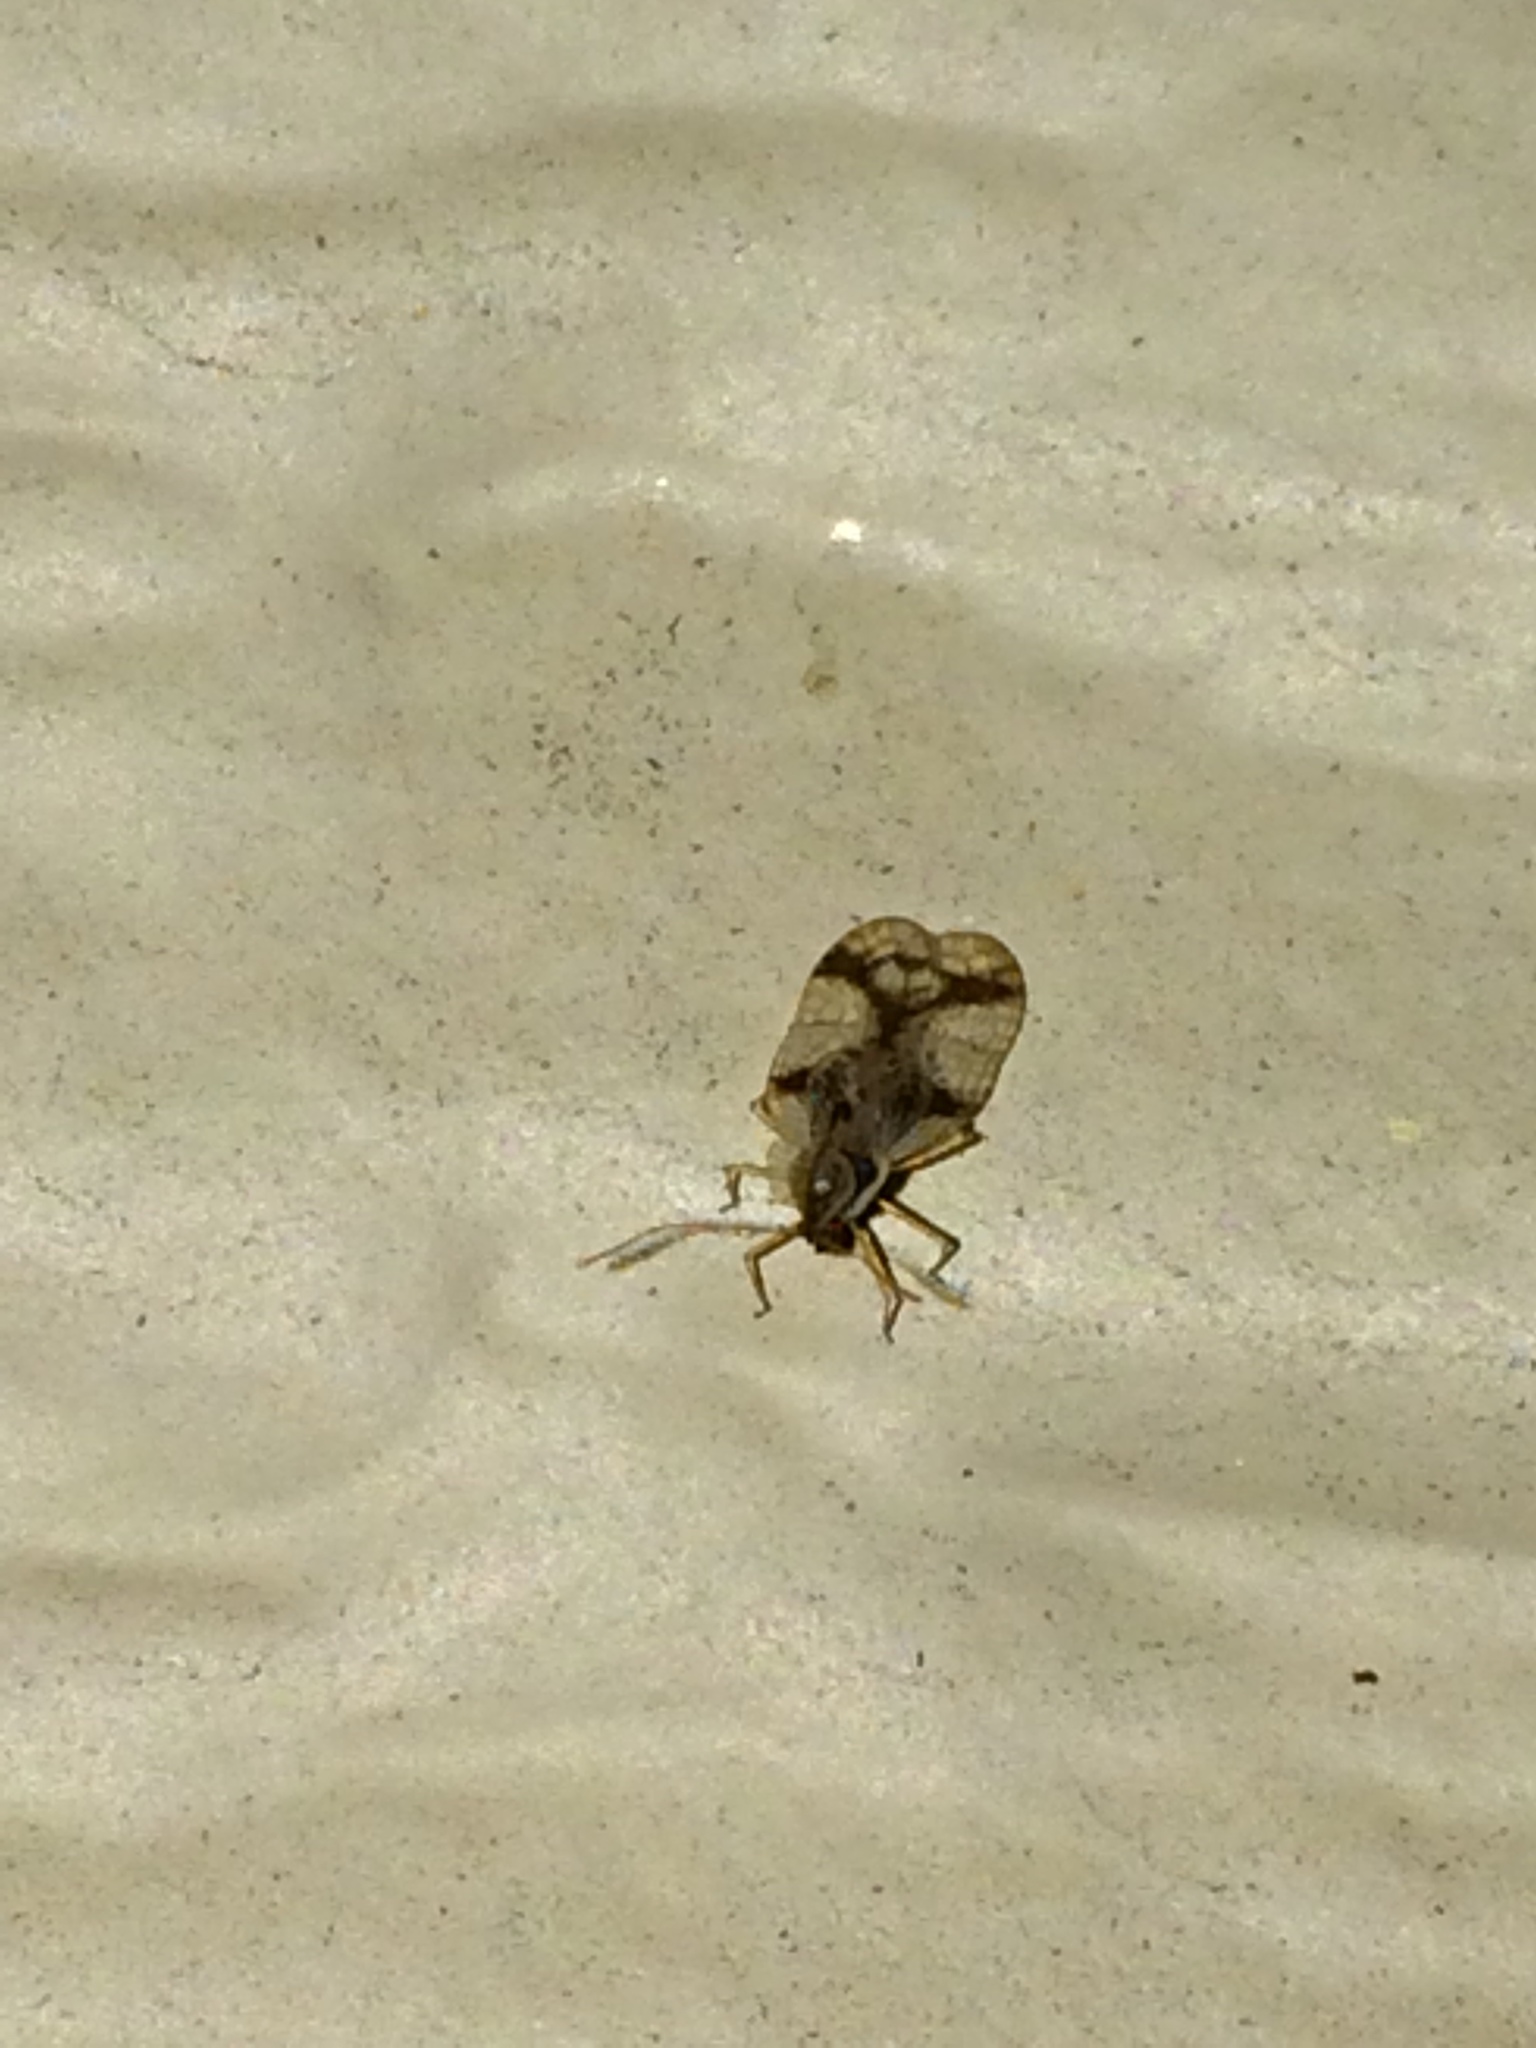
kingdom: Animalia
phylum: Arthropoda
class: Insecta
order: Hemiptera
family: Tingidae
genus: Stephanitis
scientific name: Stephanitis pyrioides
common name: Azalea lace bug
